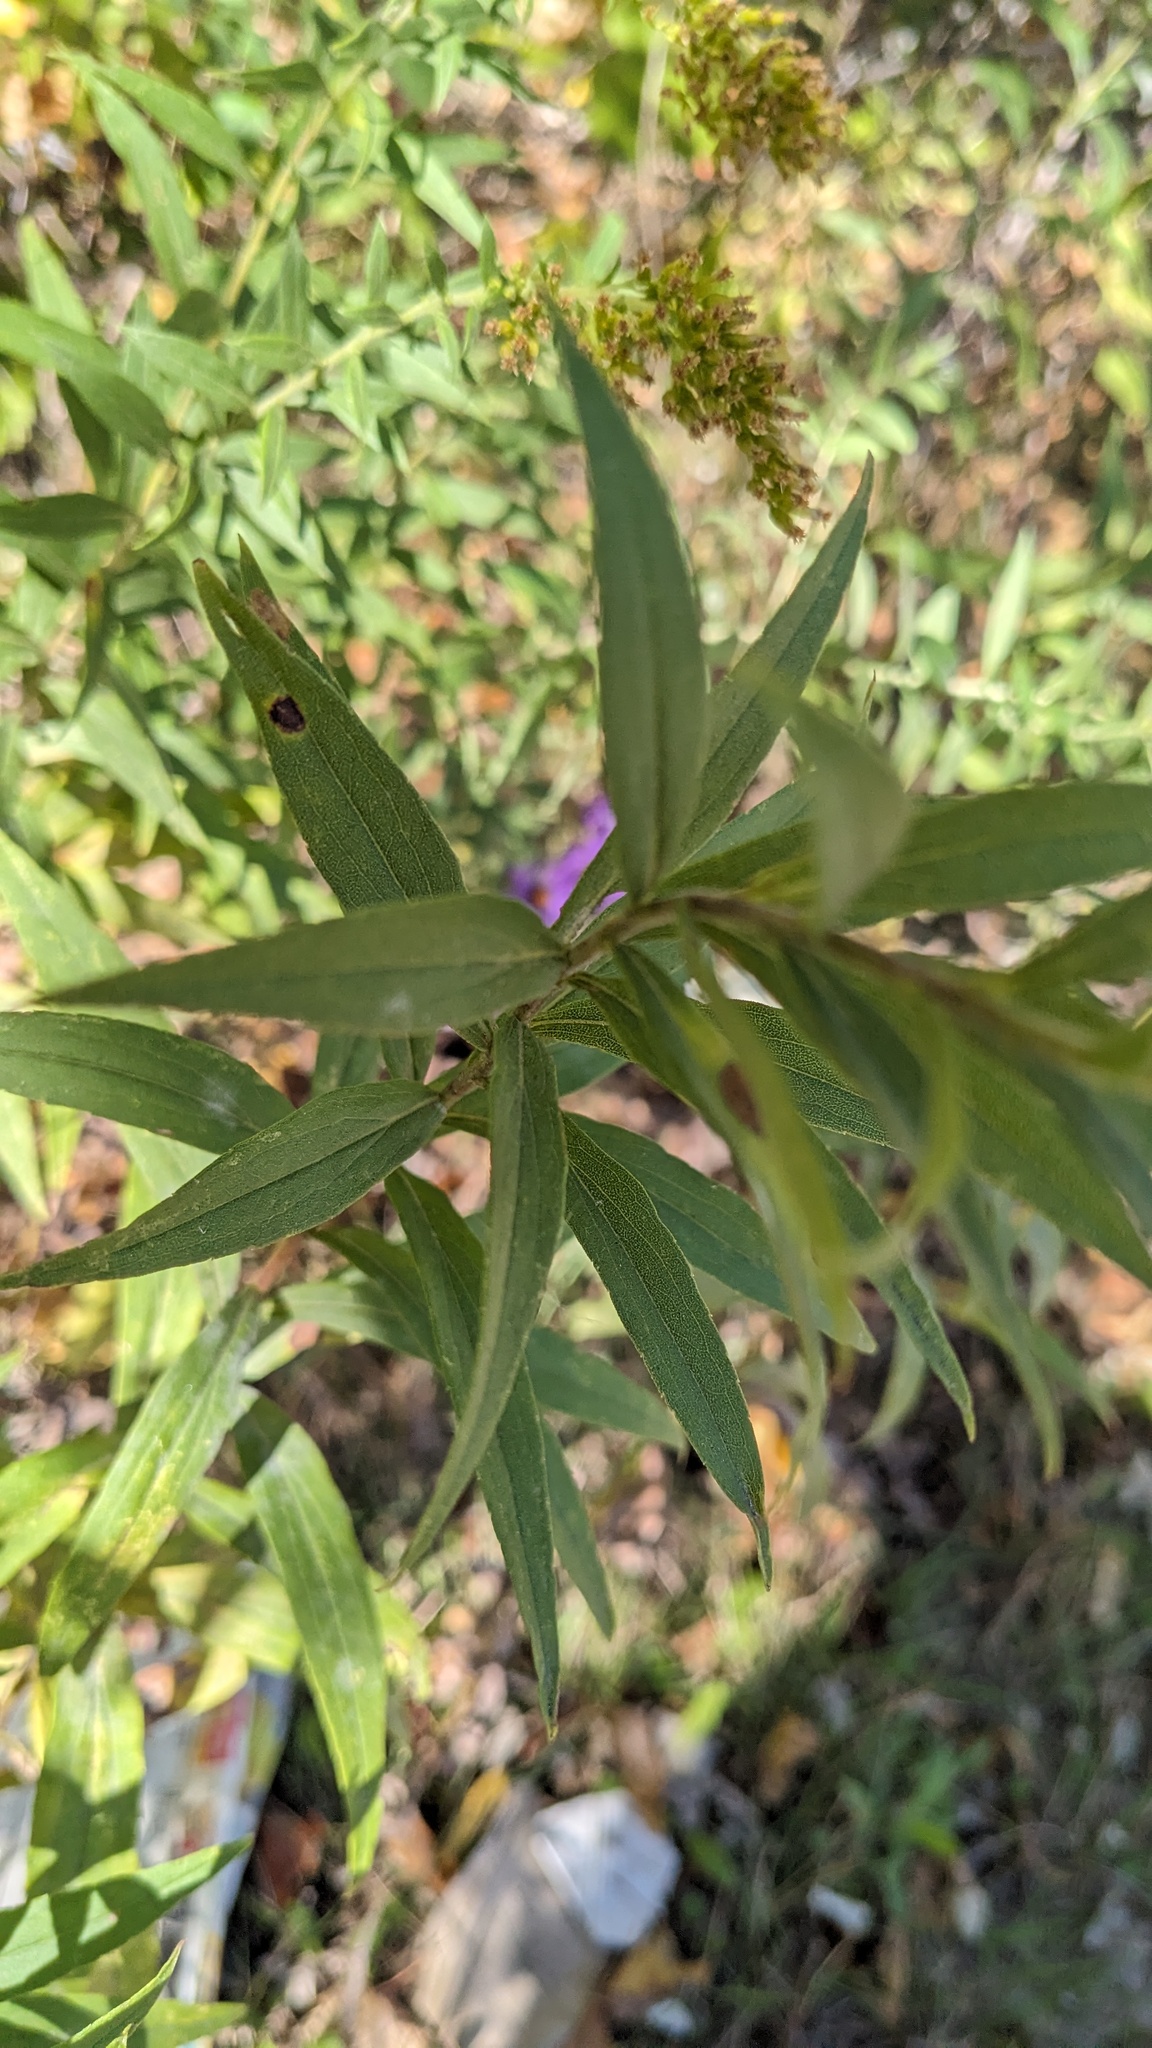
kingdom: Animalia
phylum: Arthropoda
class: Insecta
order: Diptera
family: Cecidomyiidae
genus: Asteromyia
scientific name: Asteromyia carbonifera
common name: Carbonifera goldenrod gall midge
